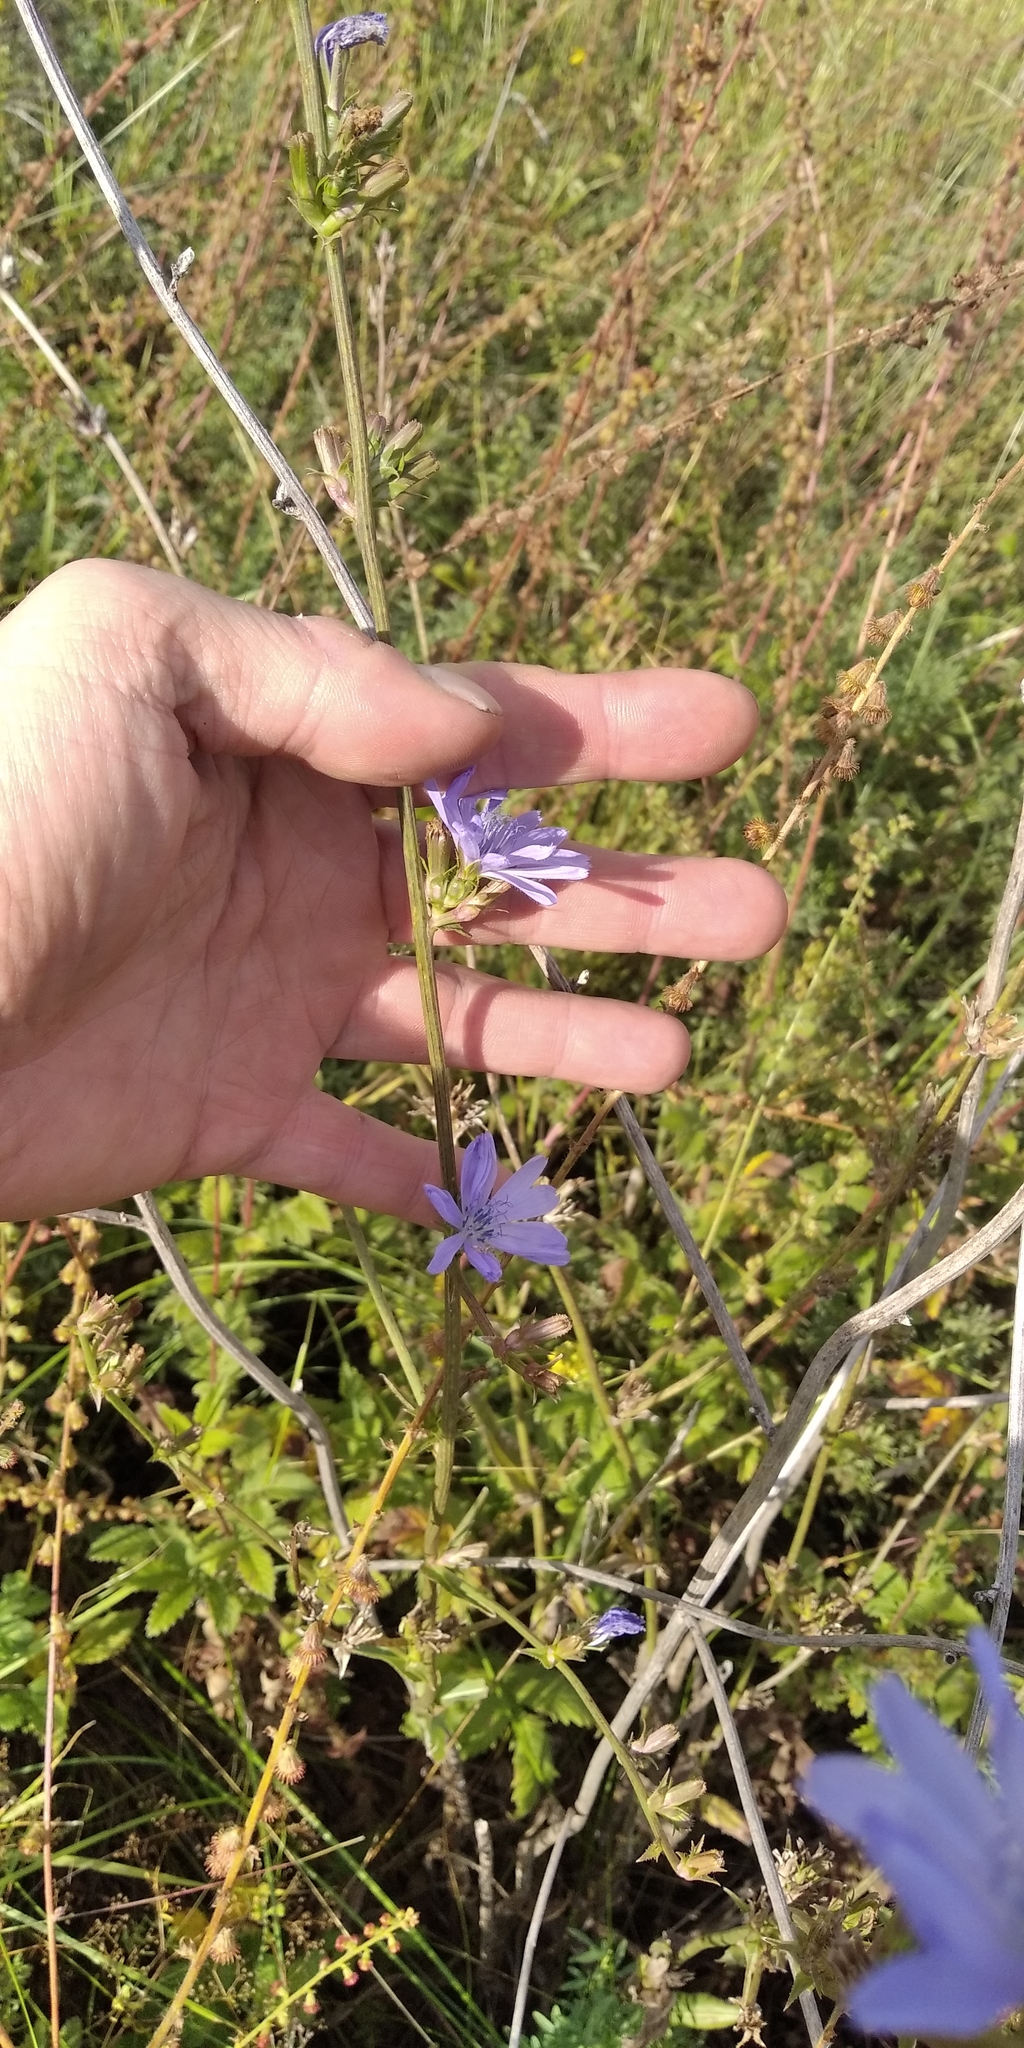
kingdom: Plantae
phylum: Tracheophyta
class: Magnoliopsida
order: Asterales
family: Asteraceae
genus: Cichorium
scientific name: Cichorium intybus
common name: Chicory
